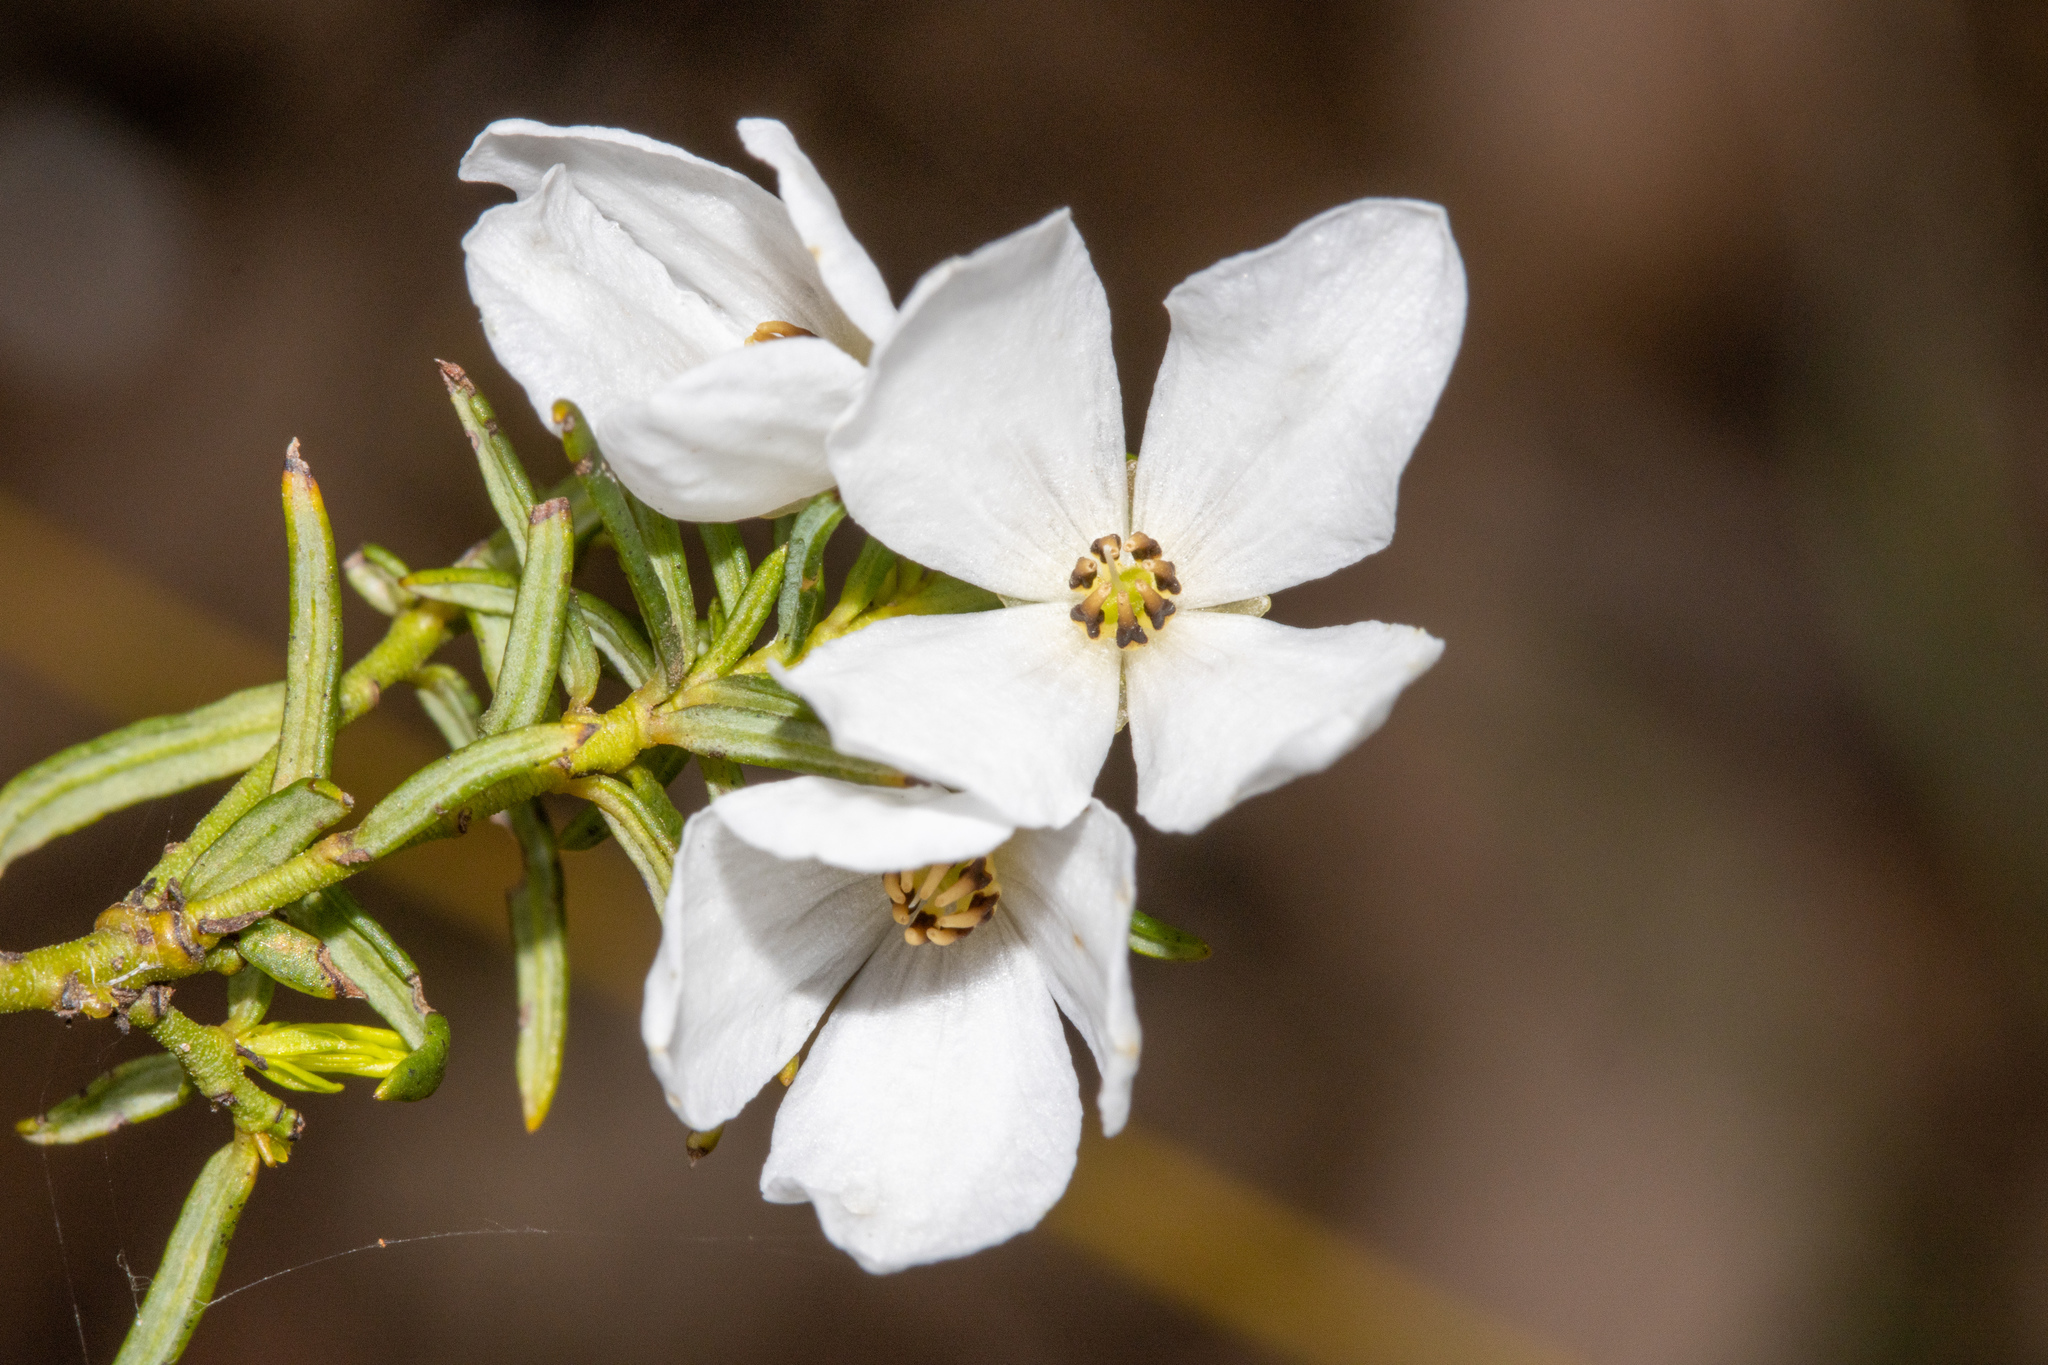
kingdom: Plantae
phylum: Tracheophyta
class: Magnoliopsida
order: Oxalidales
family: Elaeocarpaceae
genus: Tetratheca
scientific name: Tetratheca pilosa
